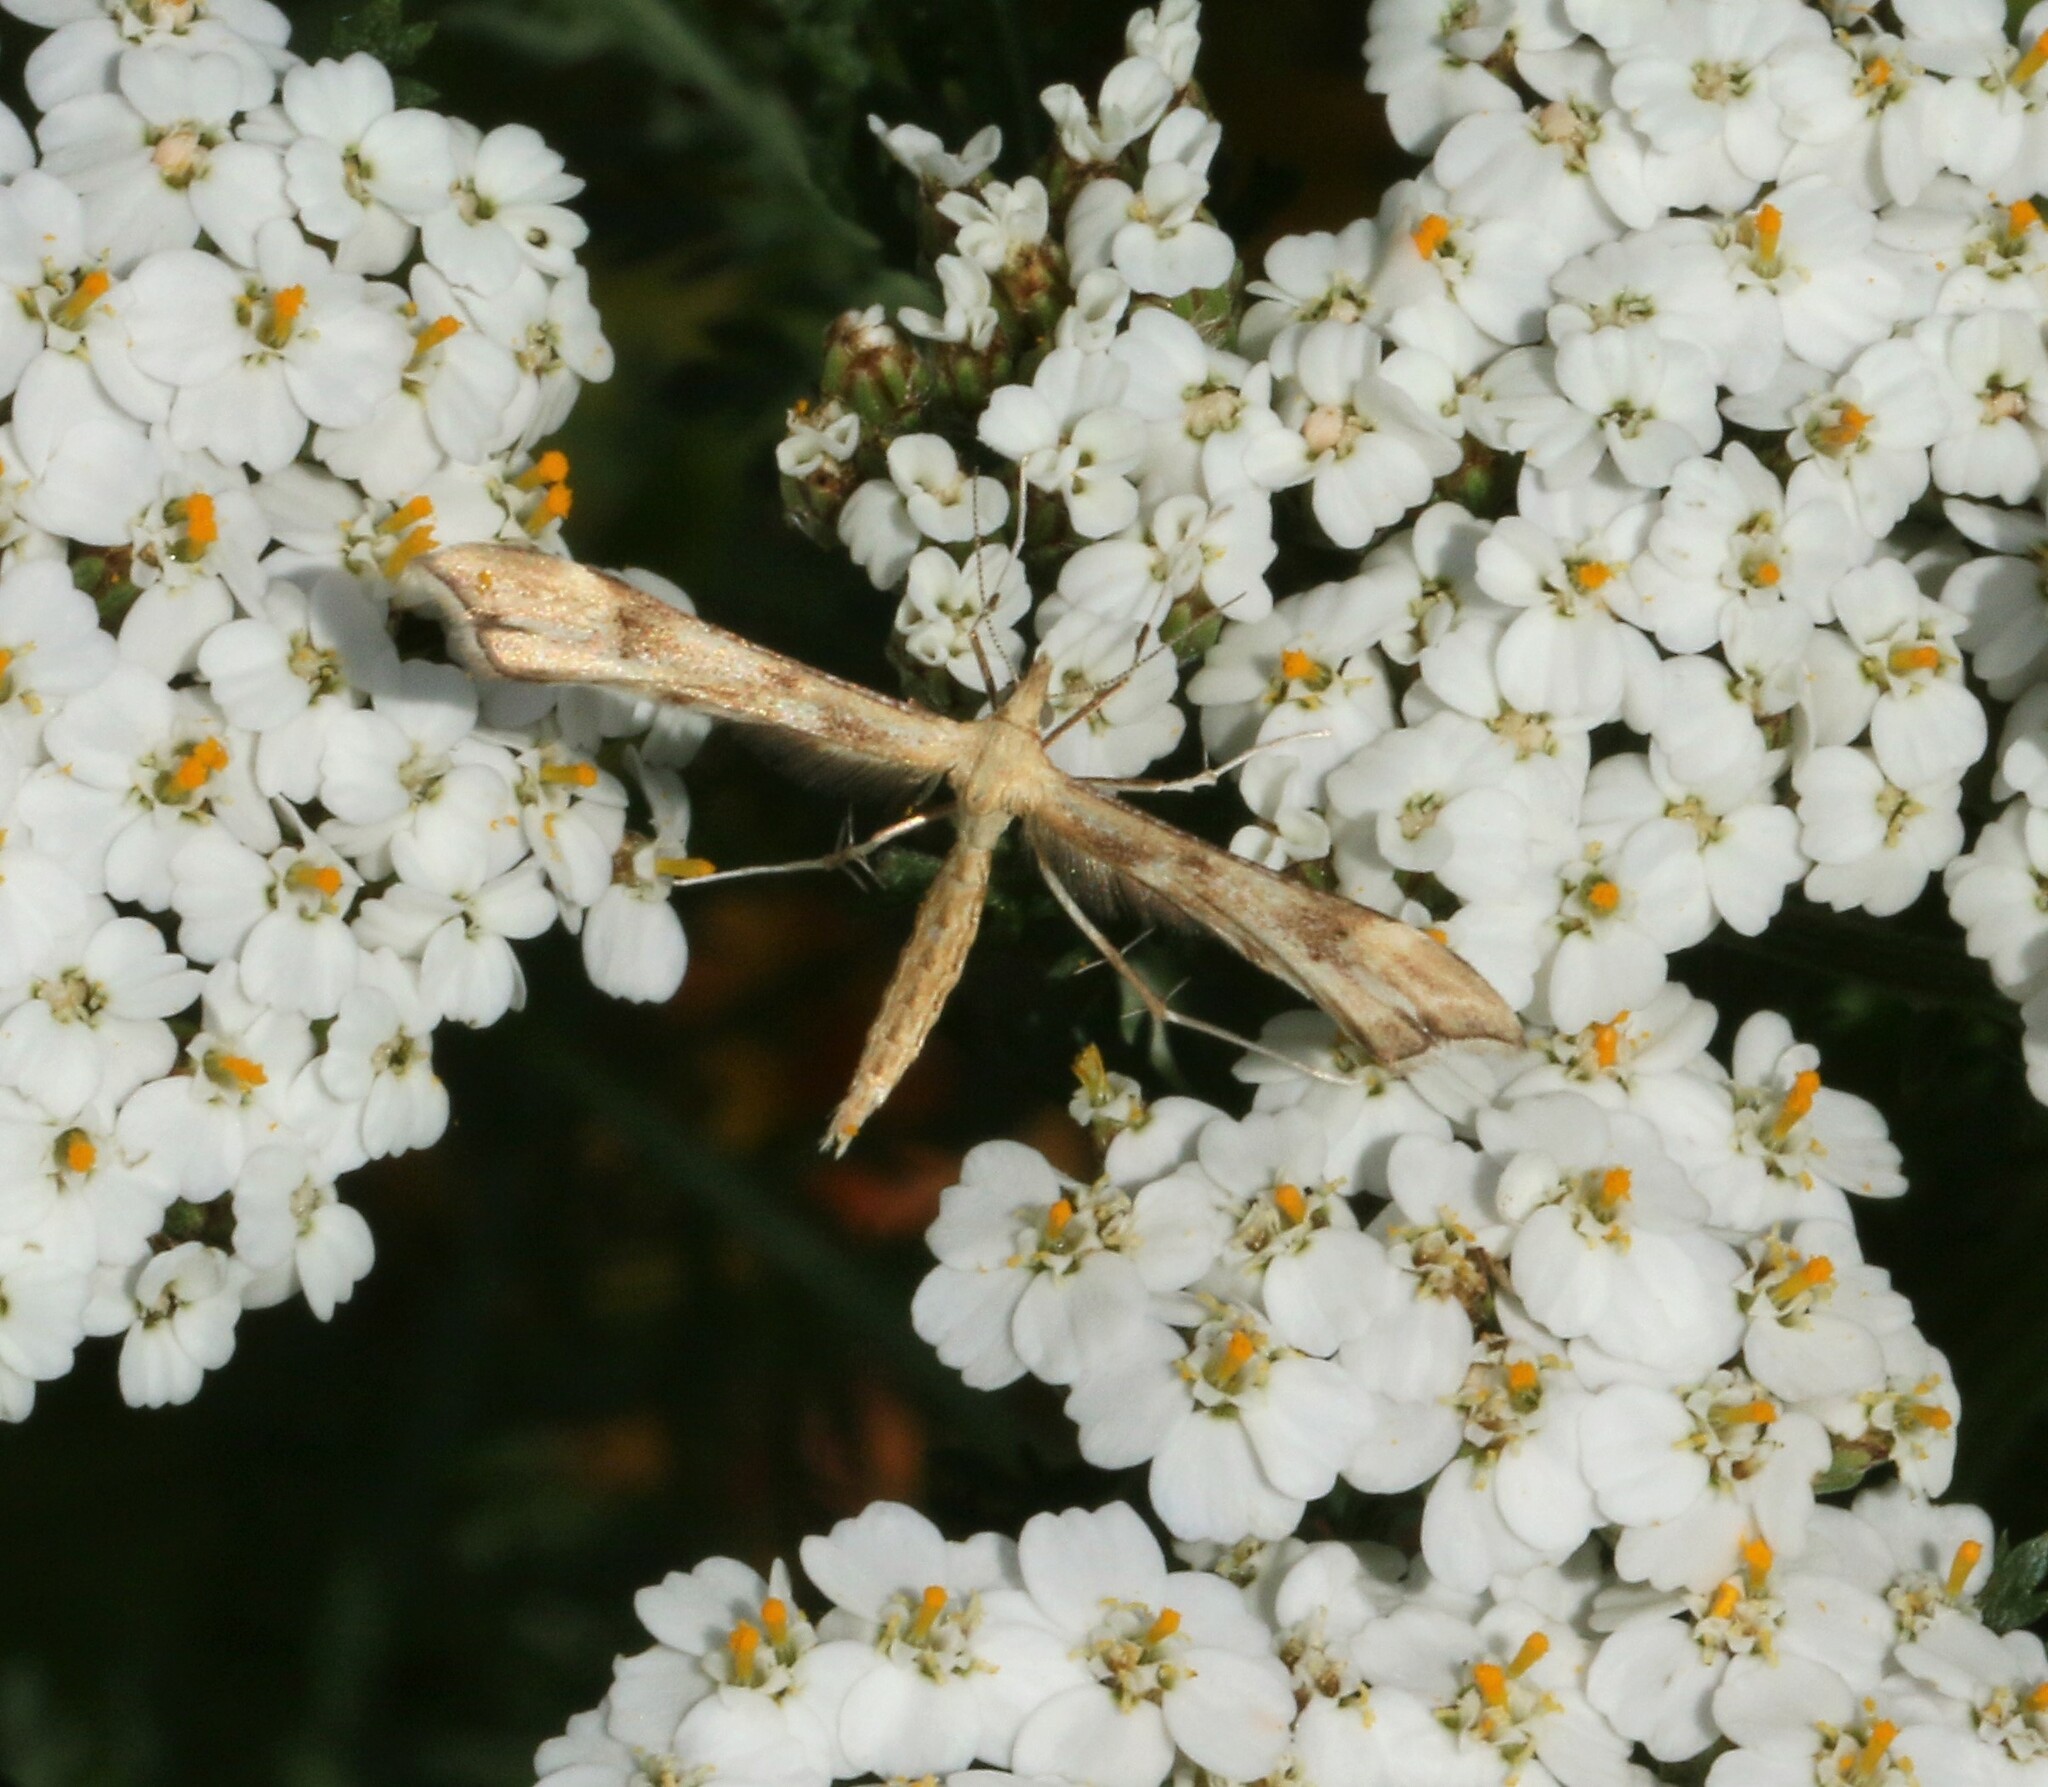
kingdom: Animalia
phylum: Arthropoda
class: Insecta
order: Lepidoptera
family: Pterophoridae
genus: Gillmeria
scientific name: Gillmeria pallidactyla
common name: Yarrow plume
